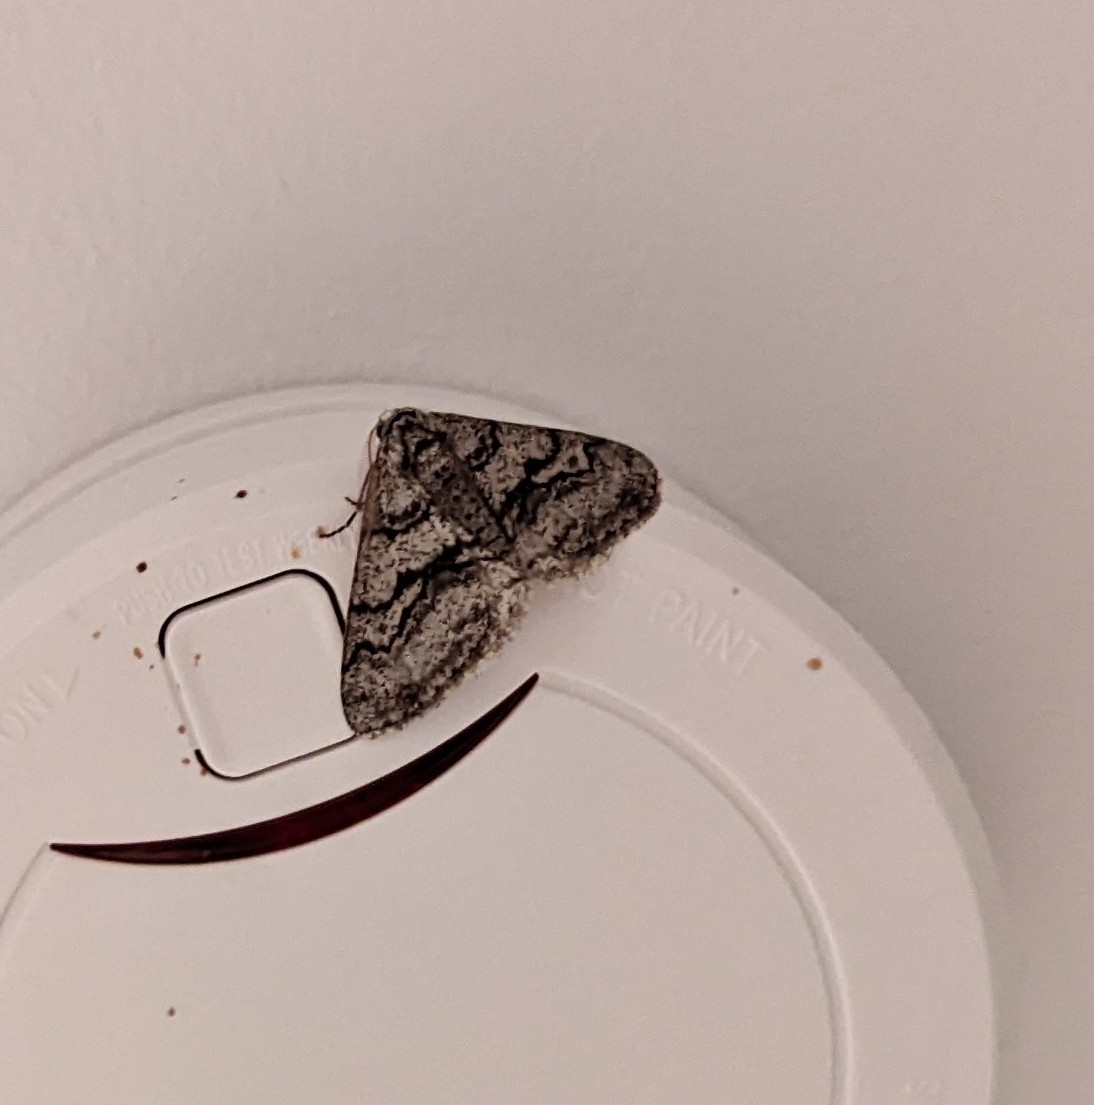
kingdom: Animalia
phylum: Arthropoda
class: Insecta
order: Lepidoptera
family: Geometridae
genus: Phigalia
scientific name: Phigalia titea
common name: Spiny looper
